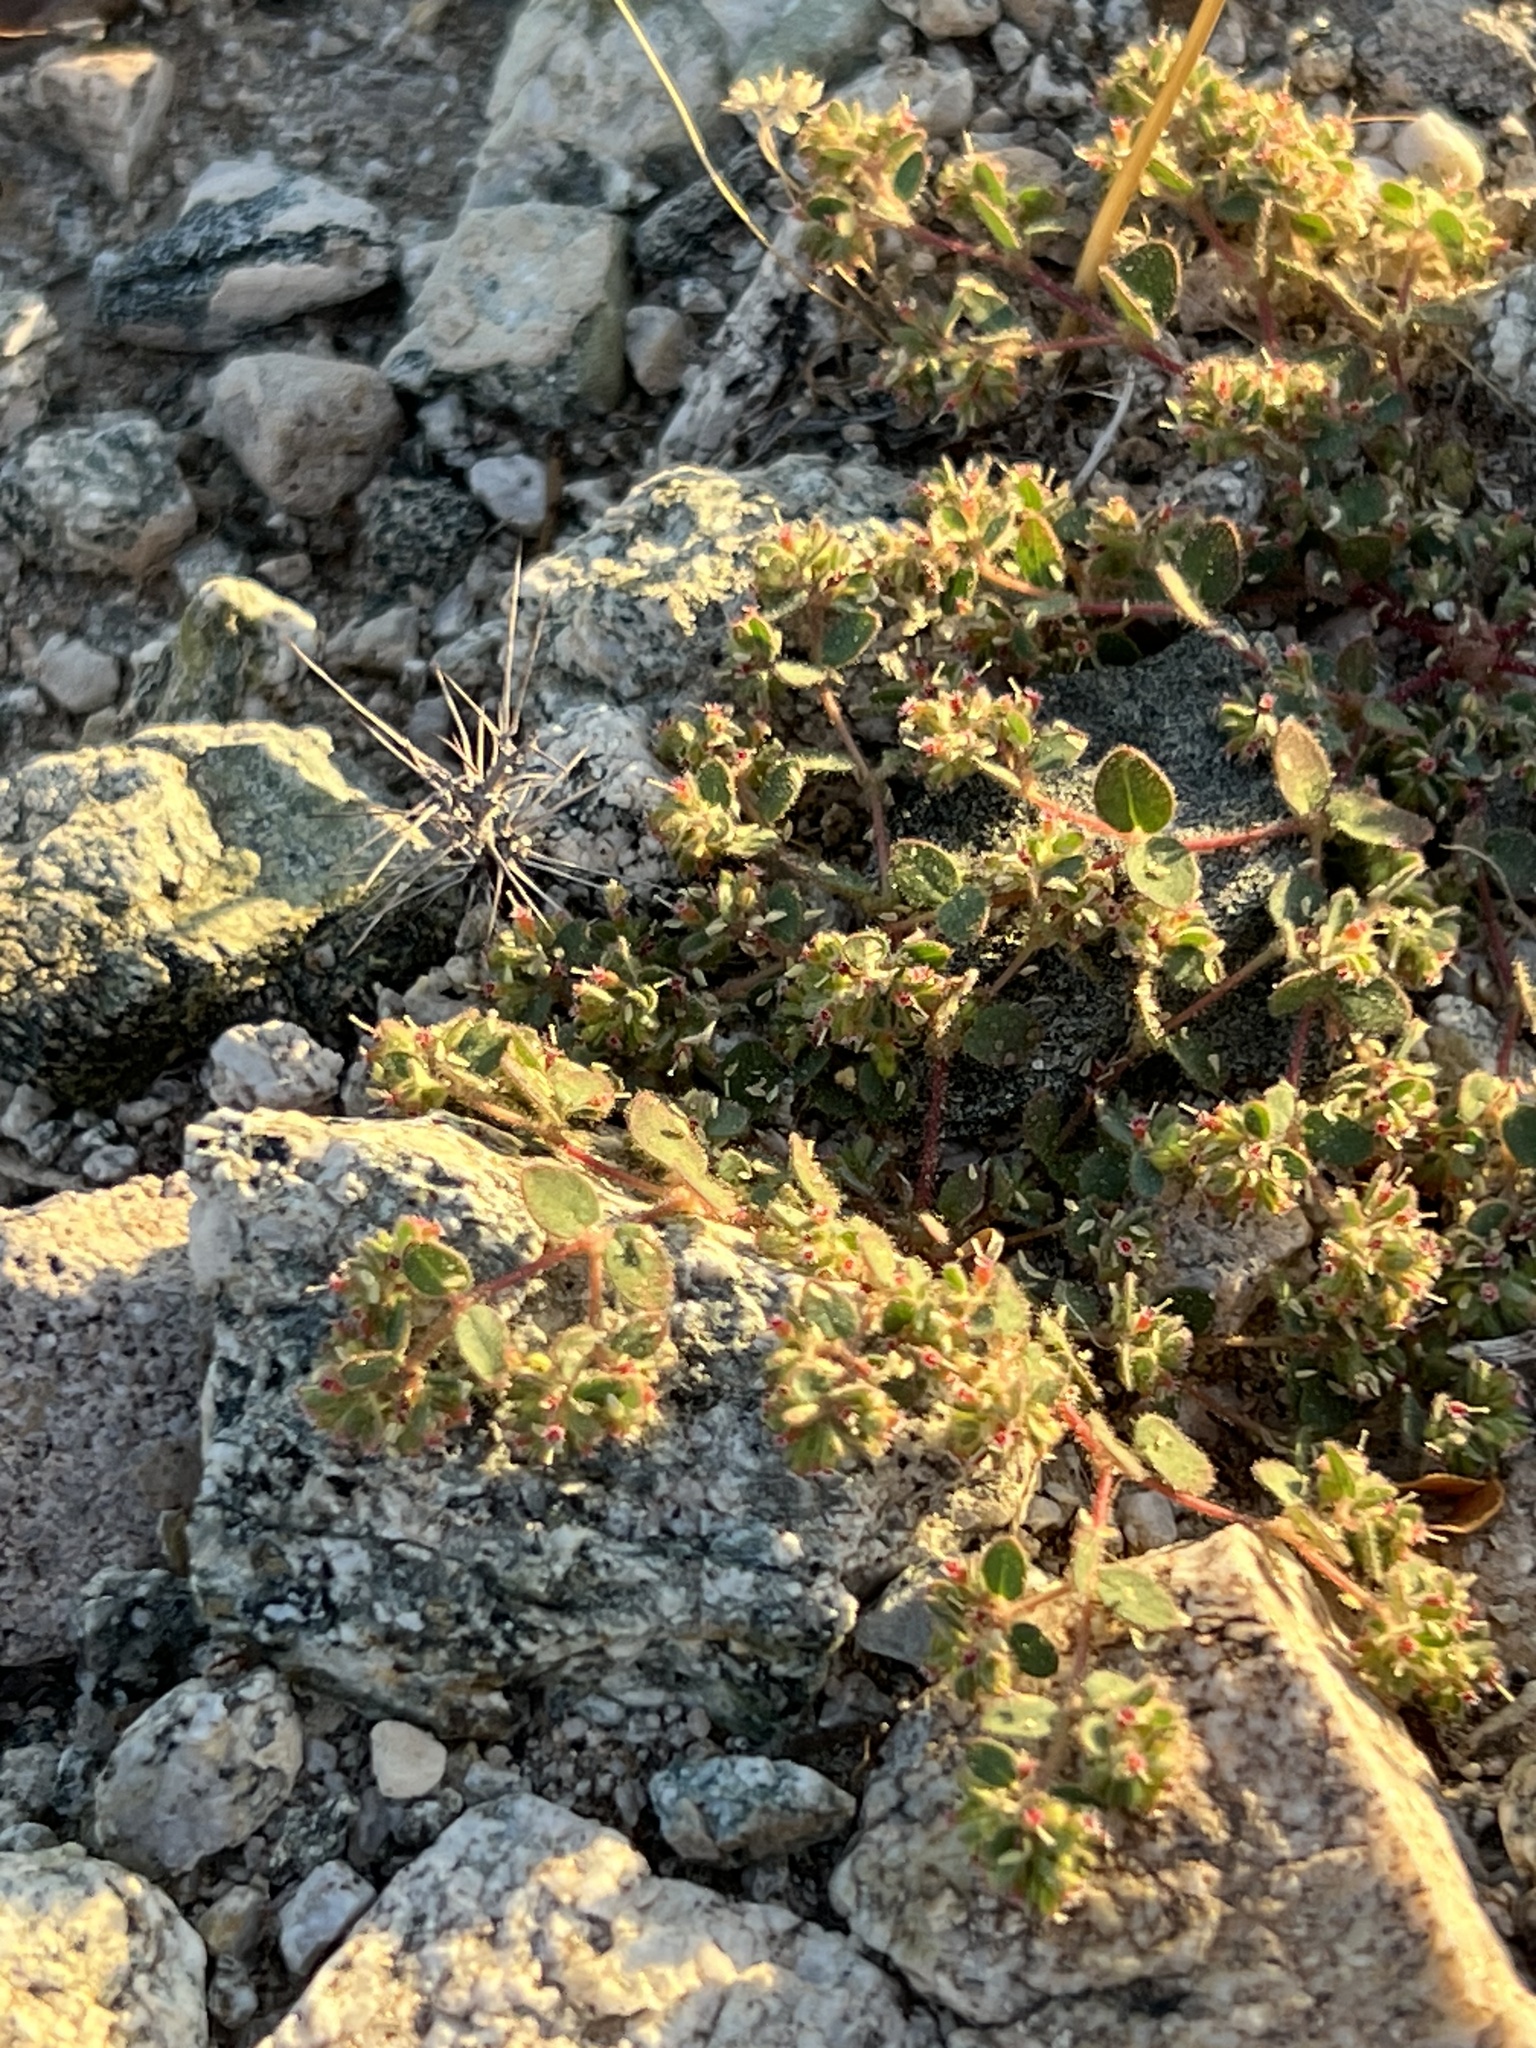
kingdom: Plantae
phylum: Tracheophyta
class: Magnoliopsida
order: Malpighiales
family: Euphorbiaceae
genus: Euphorbia
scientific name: Euphorbia setiloba
